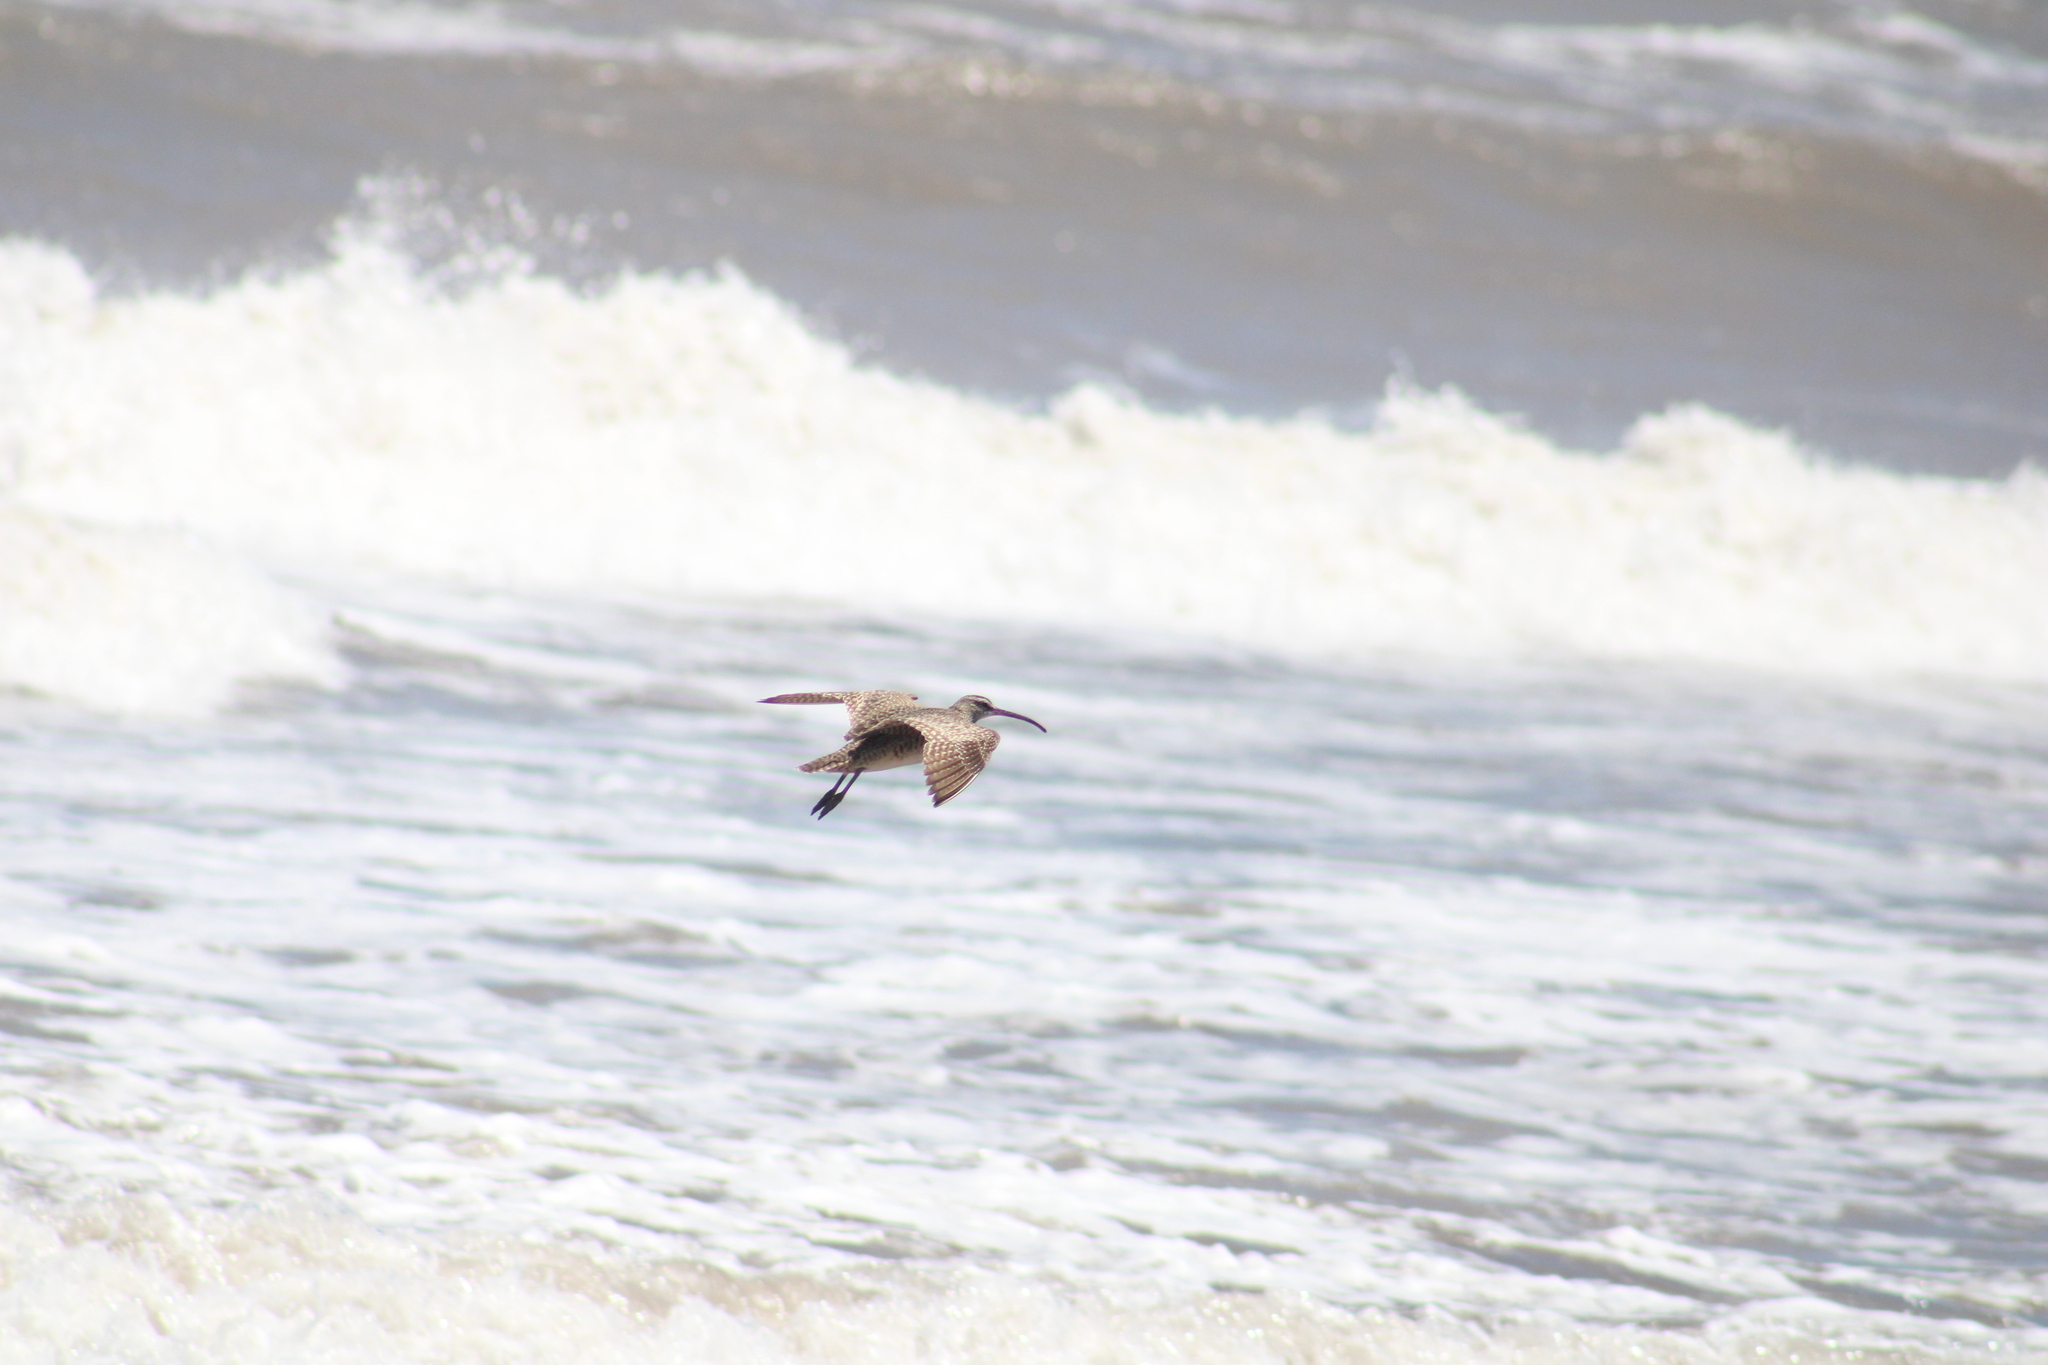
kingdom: Animalia
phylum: Chordata
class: Aves
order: Charadriiformes
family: Scolopacidae
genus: Numenius
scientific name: Numenius phaeopus
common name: Whimbrel
